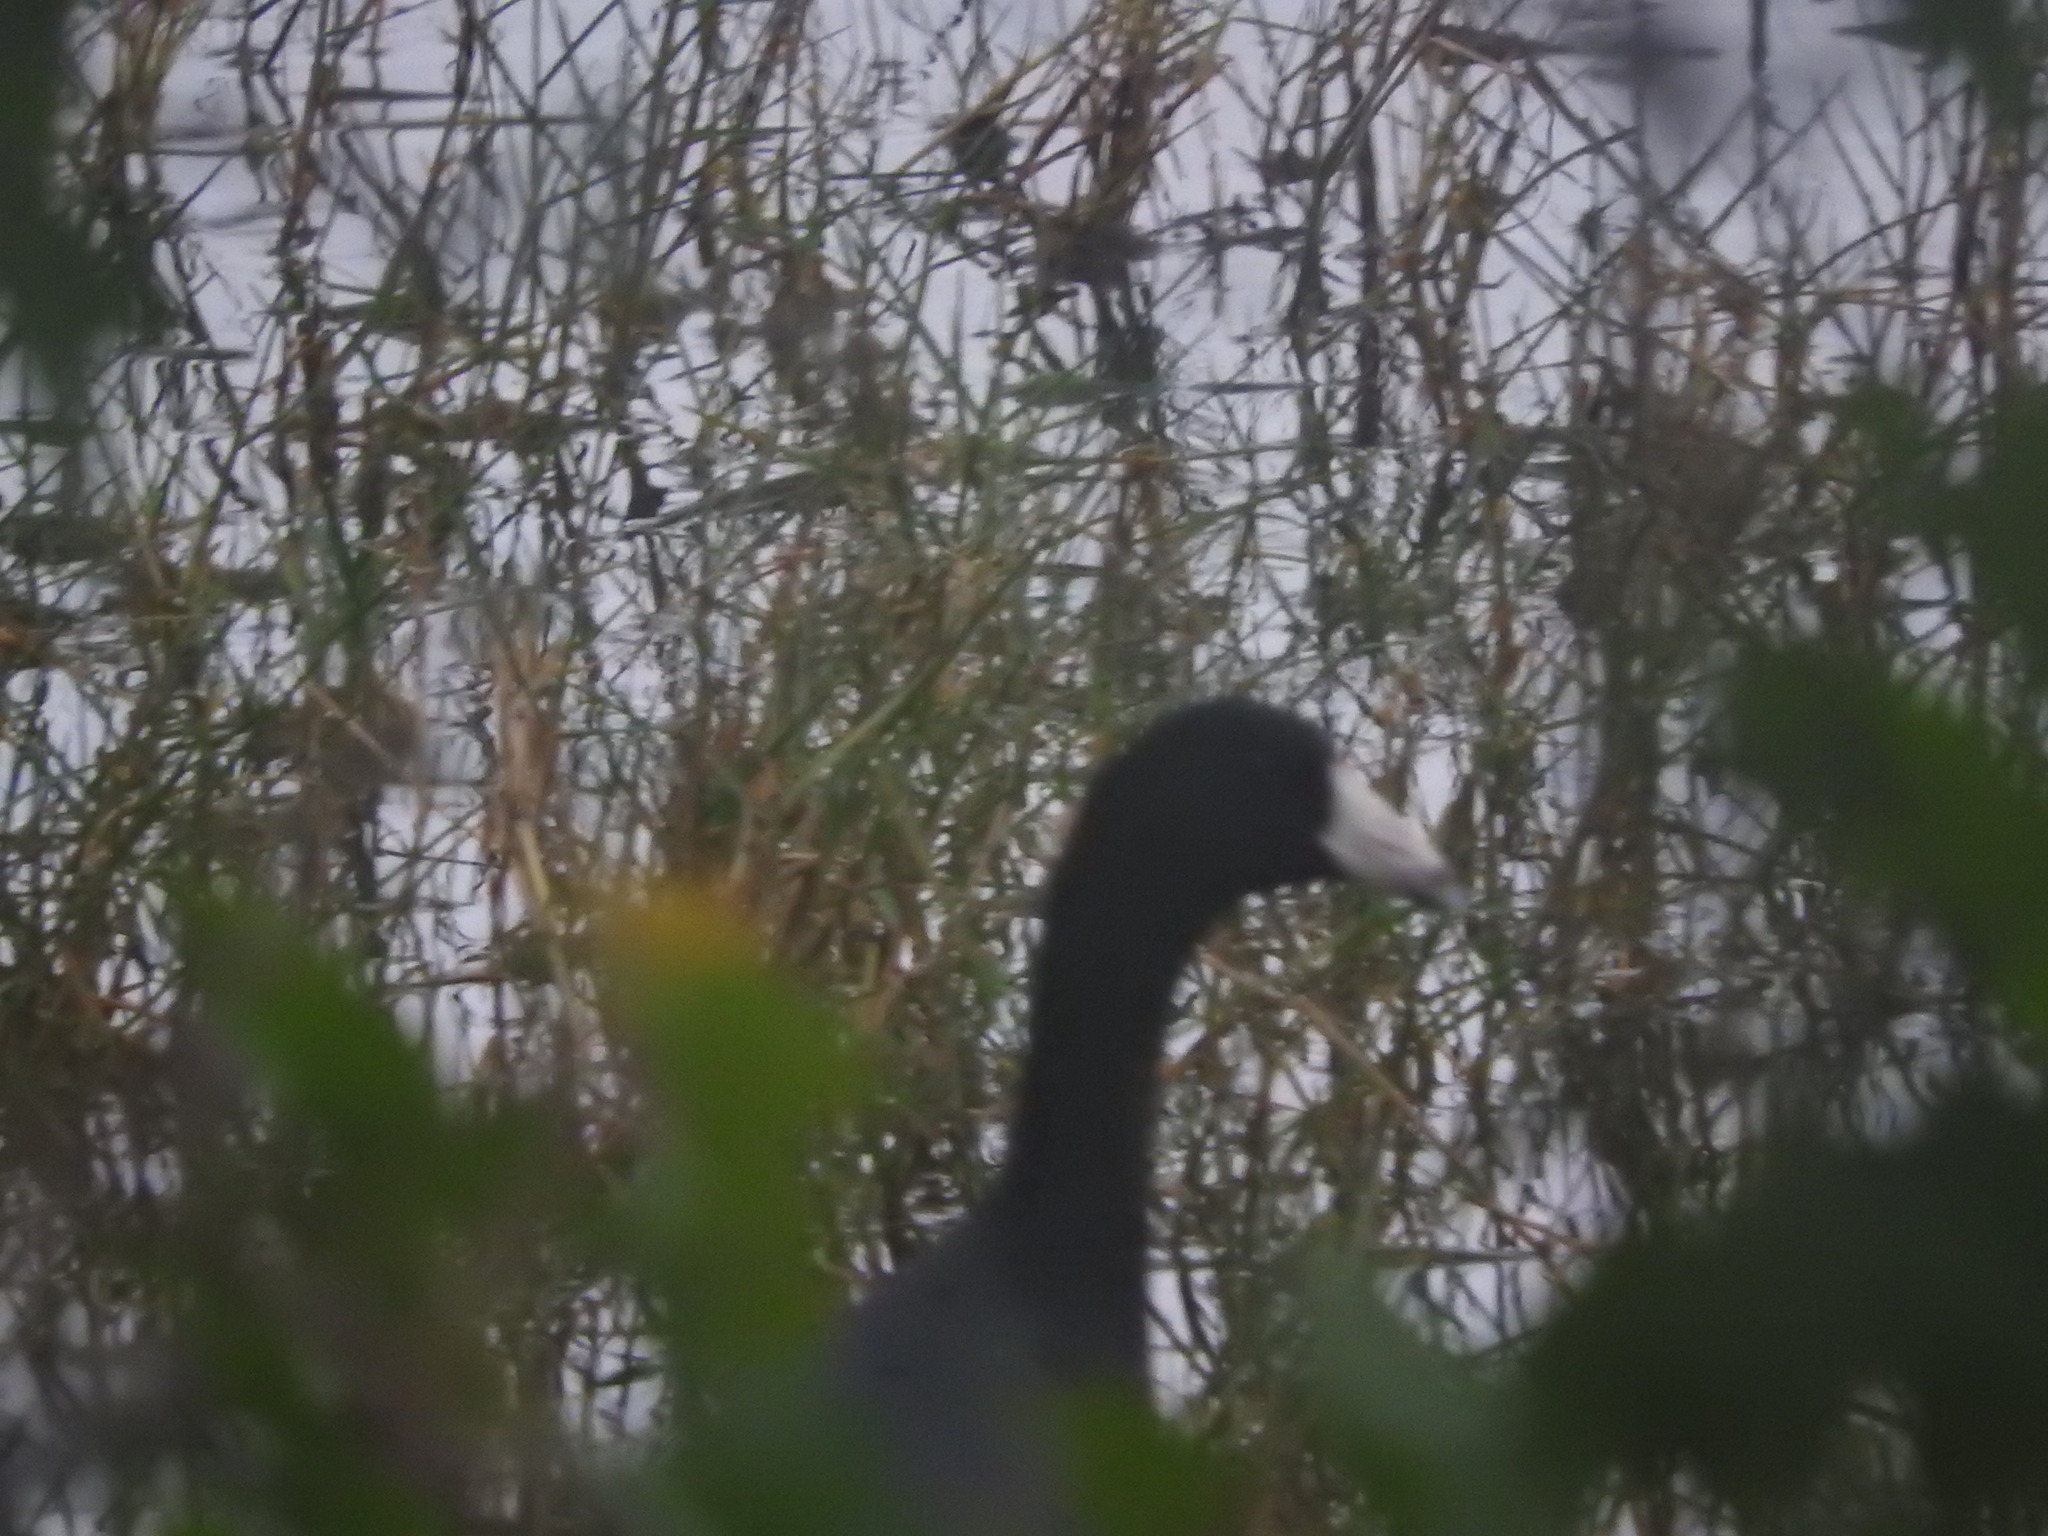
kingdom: Animalia
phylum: Chordata
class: Aves
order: Gruiformes
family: Rallidae
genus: Fulica
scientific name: Fulica americana
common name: American coot
